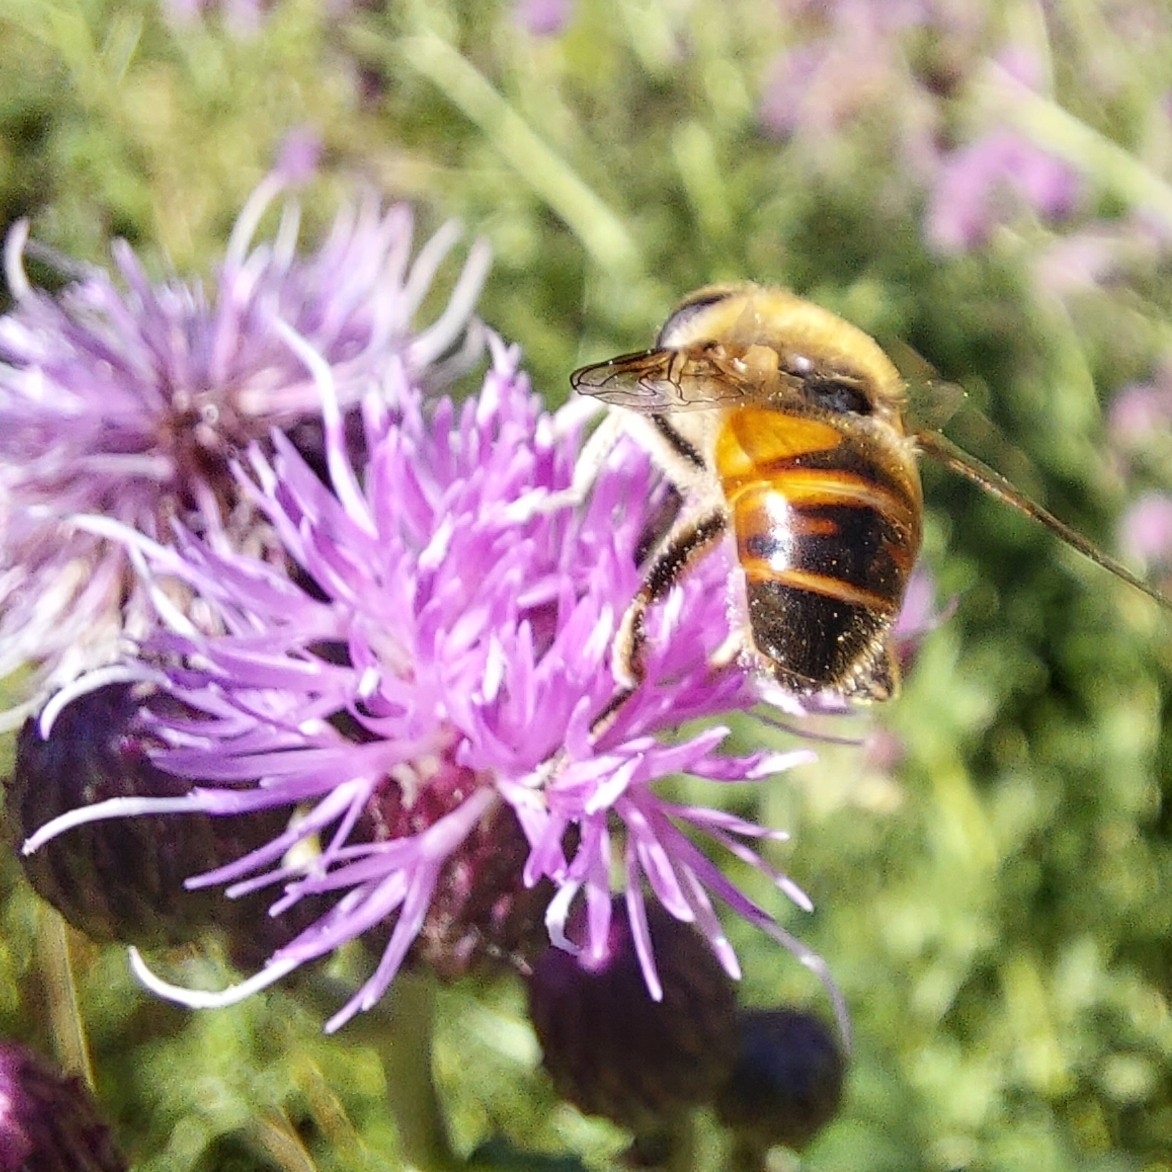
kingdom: Animalia
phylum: Arthropoda
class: Insecta
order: Diptera
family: Syrphidae
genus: Eristalis
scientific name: Eristalis tenax
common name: Drone fly
